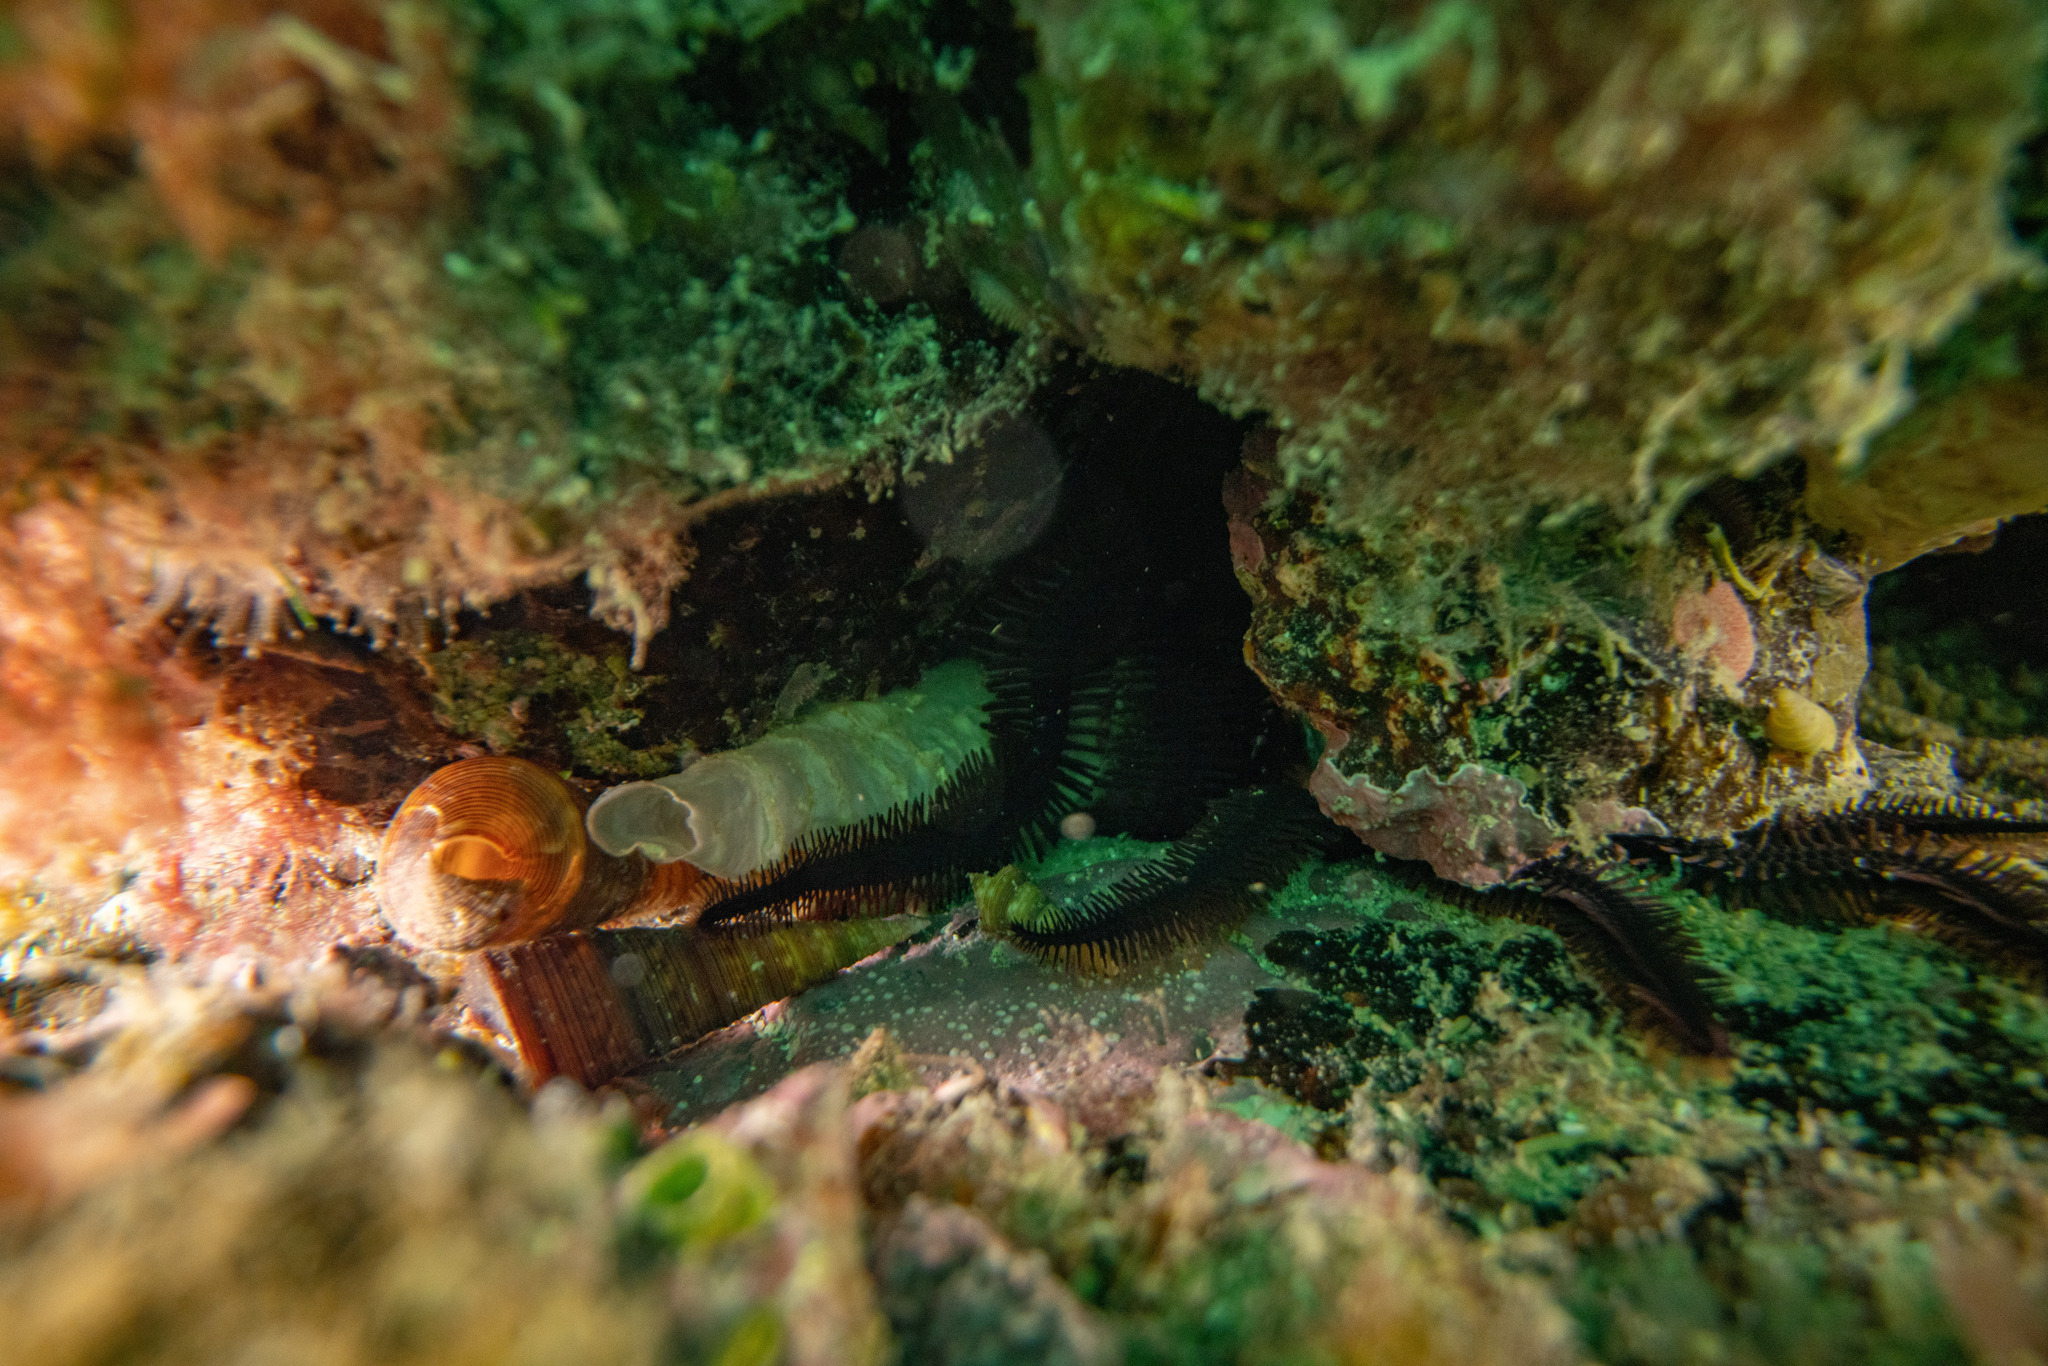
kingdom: Animalia
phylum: Echinodermata
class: Ophiuroidea
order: Ophiacanthida
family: Ophiopteridae
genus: Ophiopteris
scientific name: Ophiopteris antipodum
